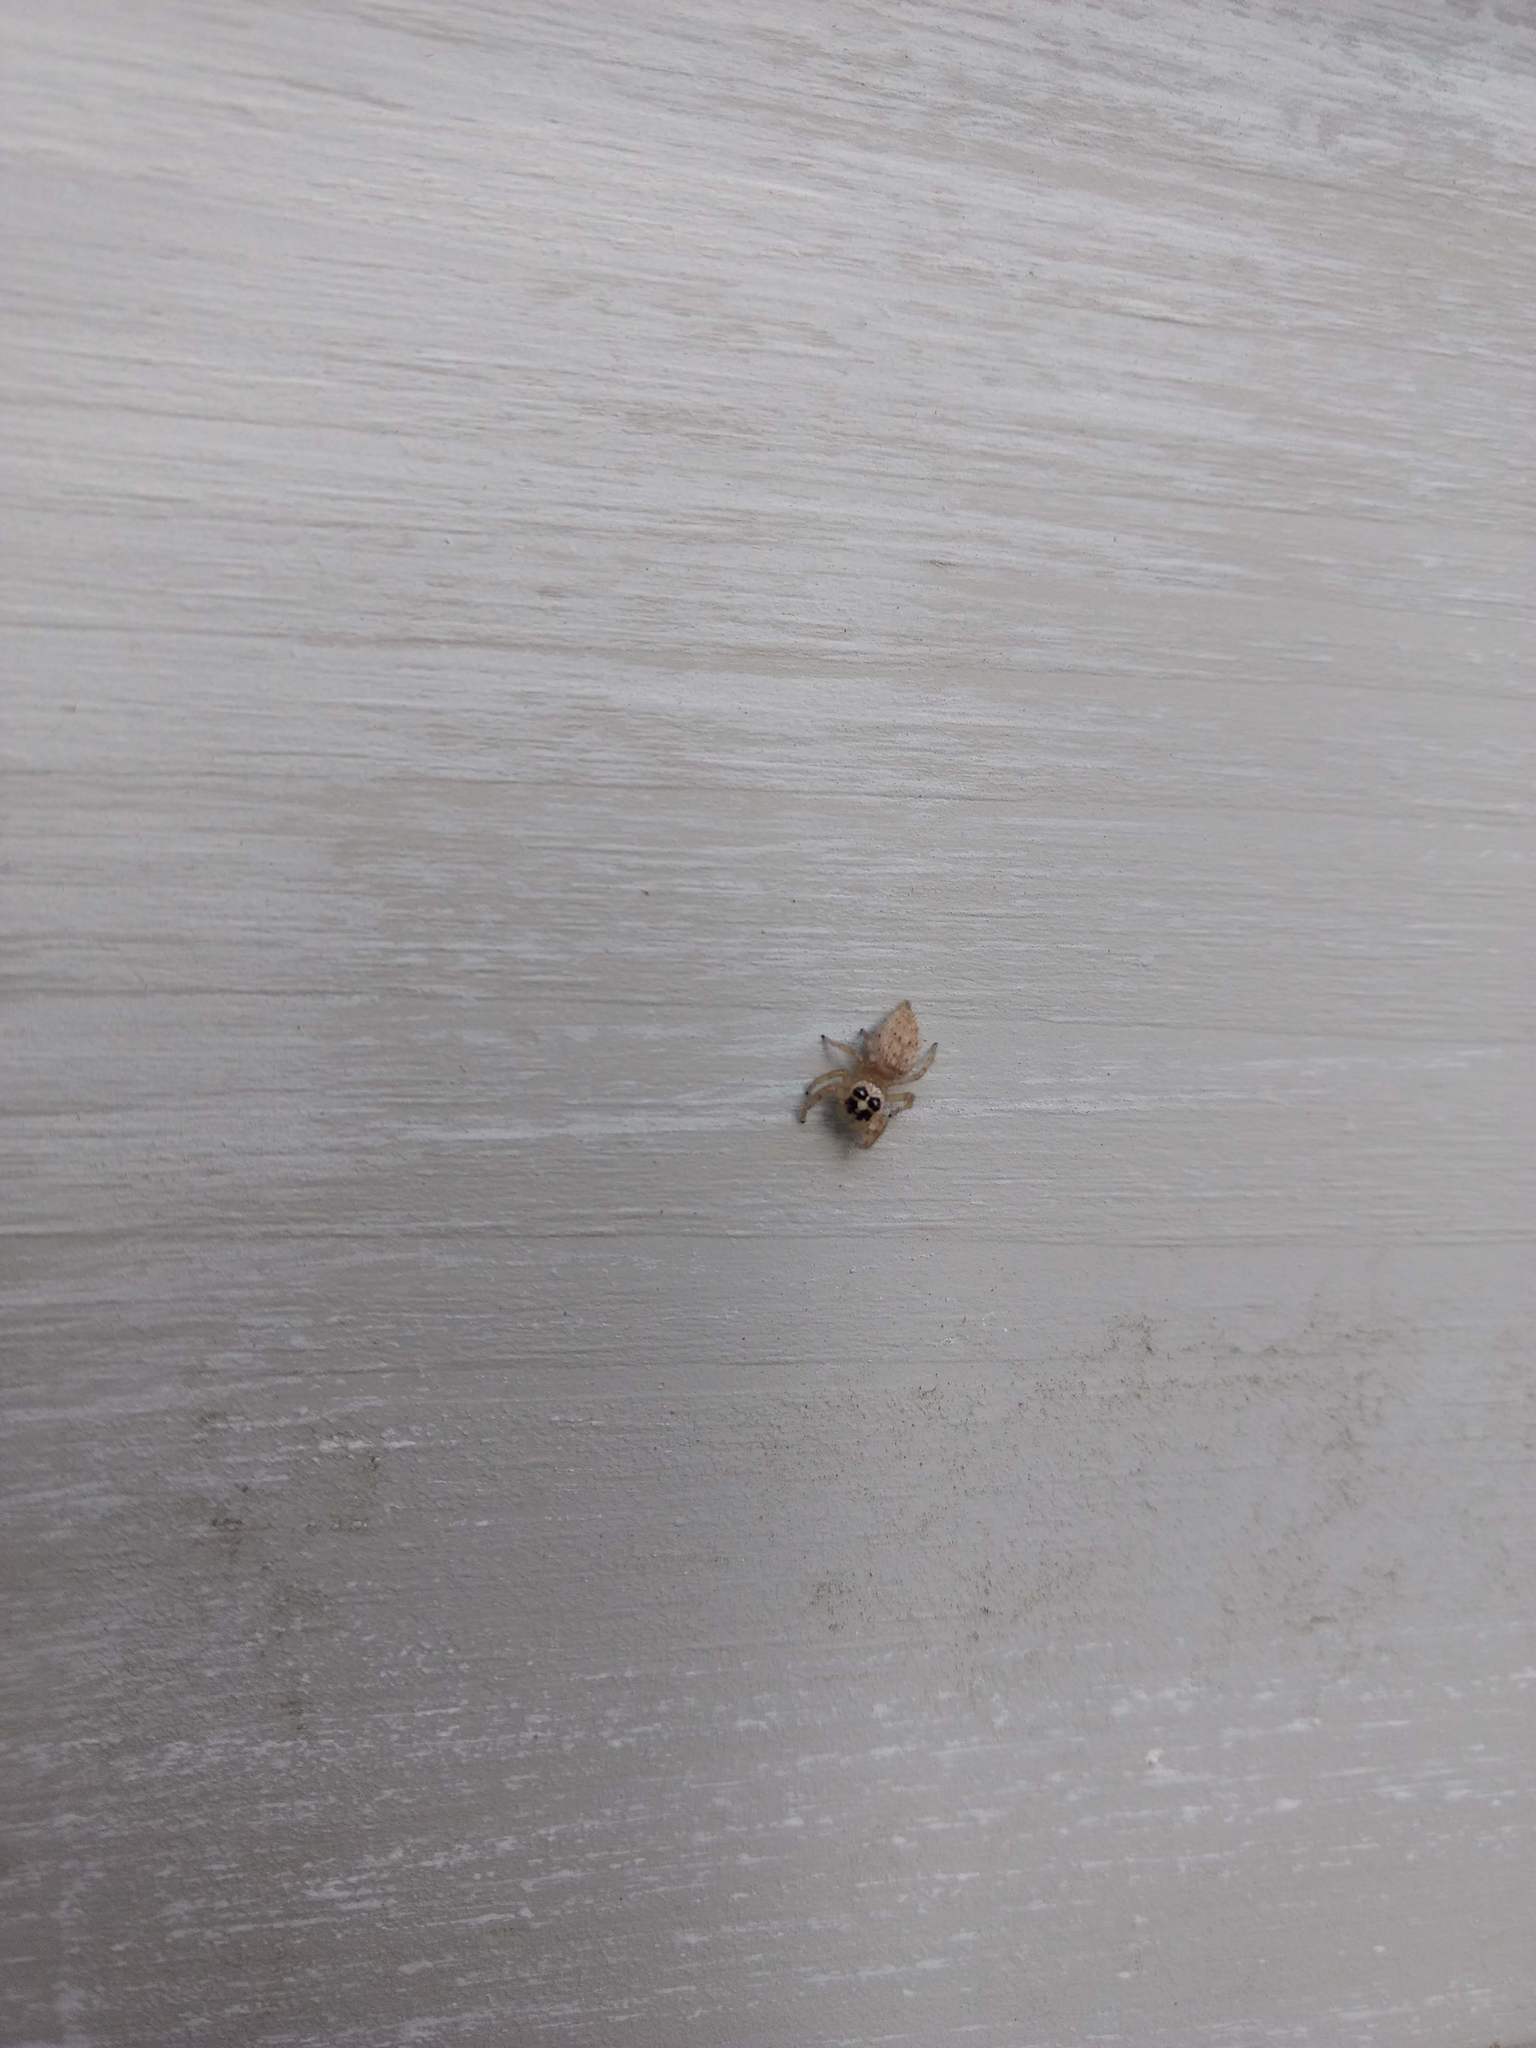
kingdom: Animalia
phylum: Arthropoda
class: Arachnida
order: Araneae
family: Salticidae
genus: Colonus
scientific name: Colonus hesperus
